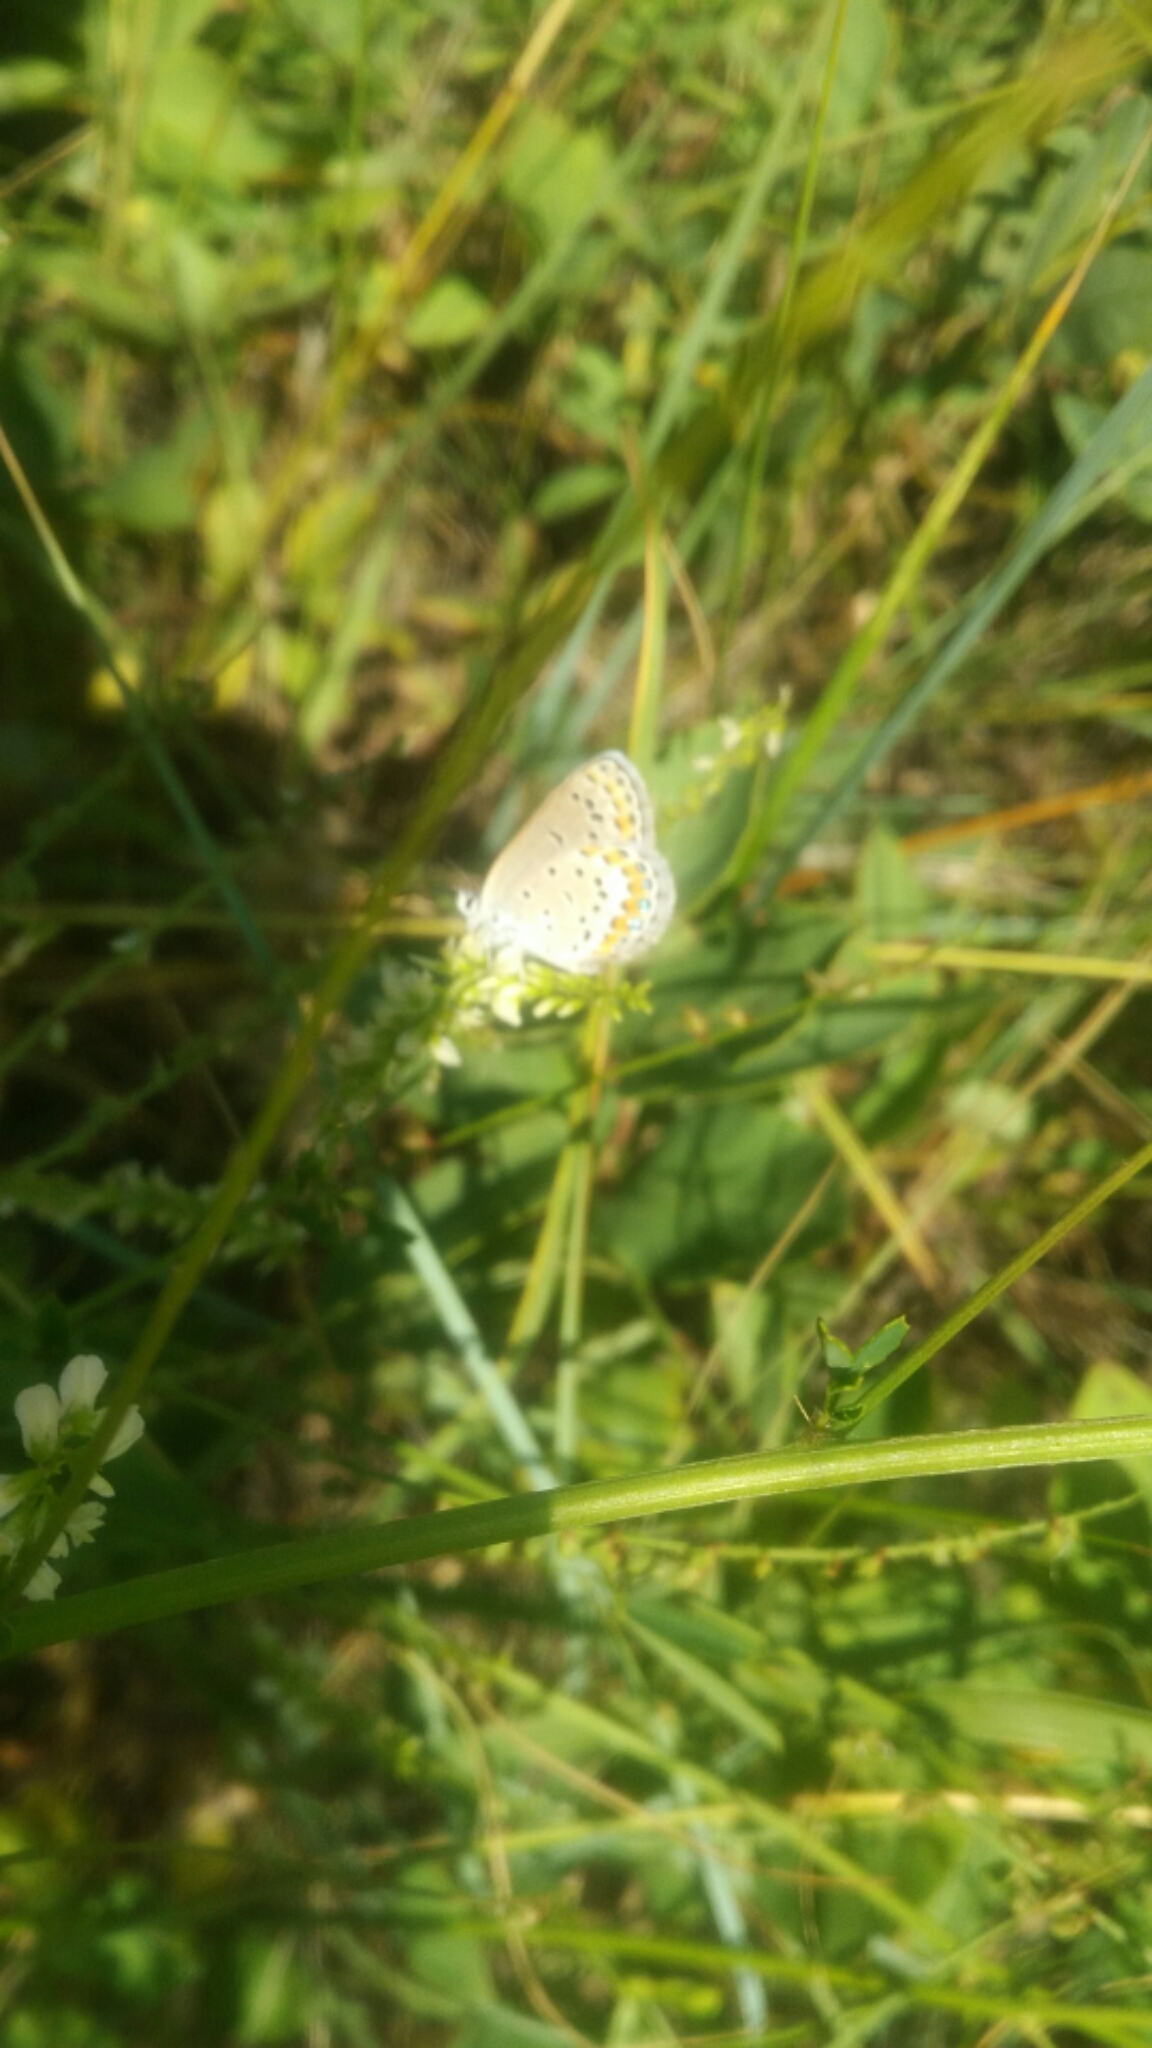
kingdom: Animalia
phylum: Arthropoda
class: Insecta
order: Lepidoptera
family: Lycaenidae
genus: Lycaeides
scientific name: Lycaeides melissa
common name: Melissa blue
